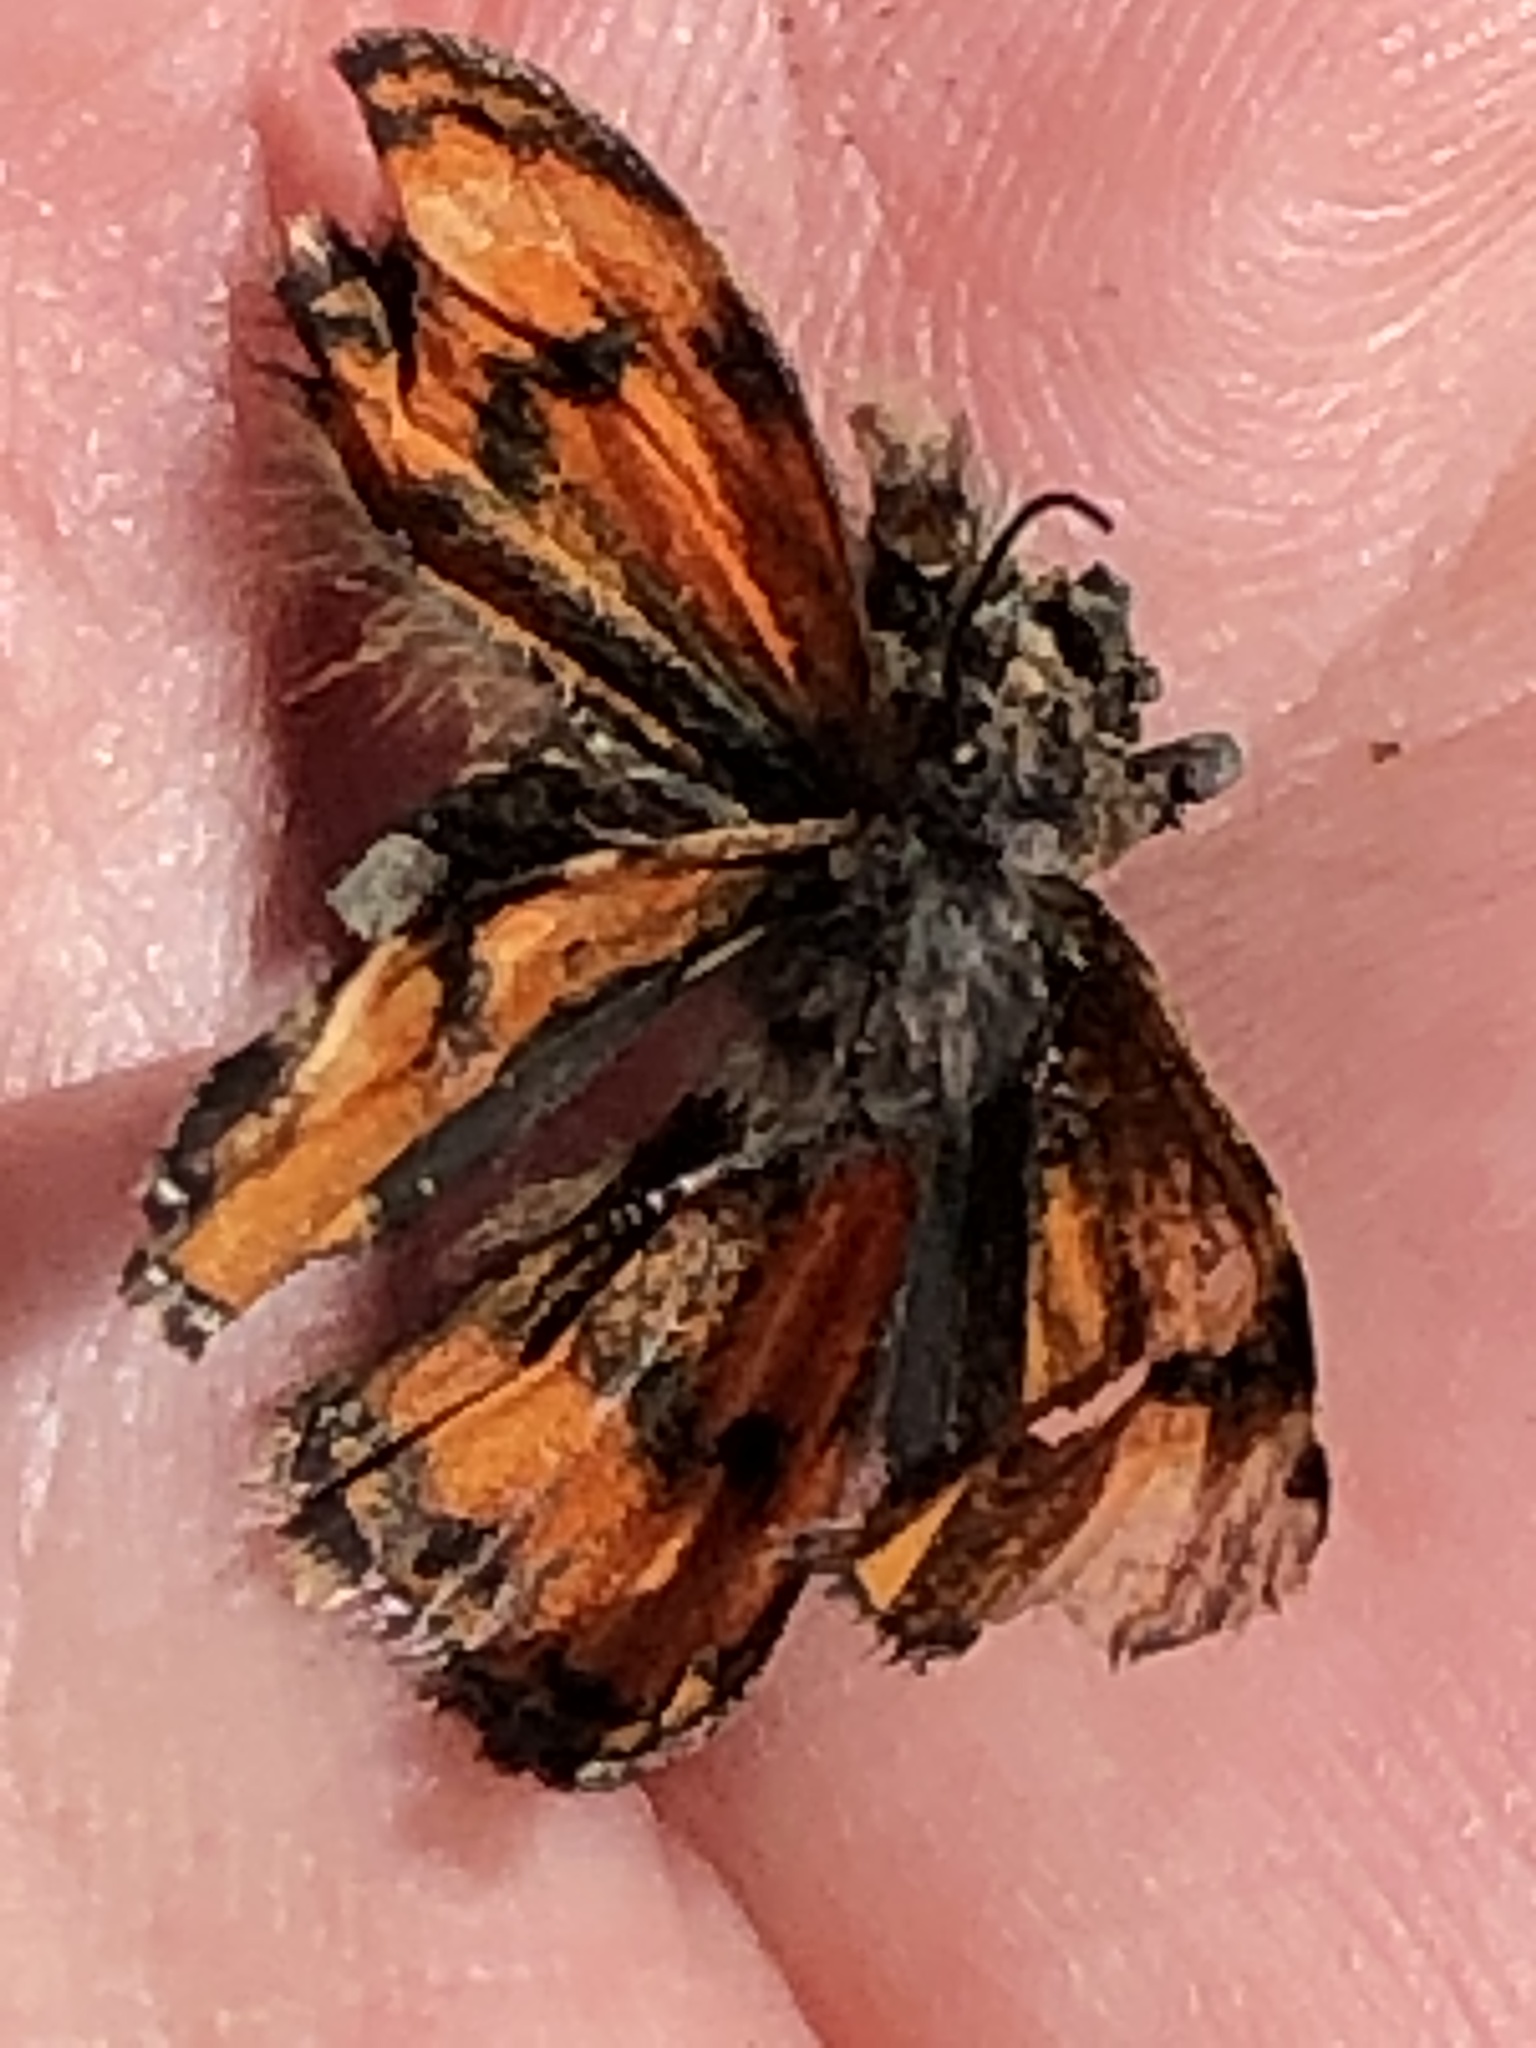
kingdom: Animalia
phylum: Arthropoda
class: Insecta
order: Lepidoptera
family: Geometridae
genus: Archiearis
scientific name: Archiearis infans
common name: First born geometer
